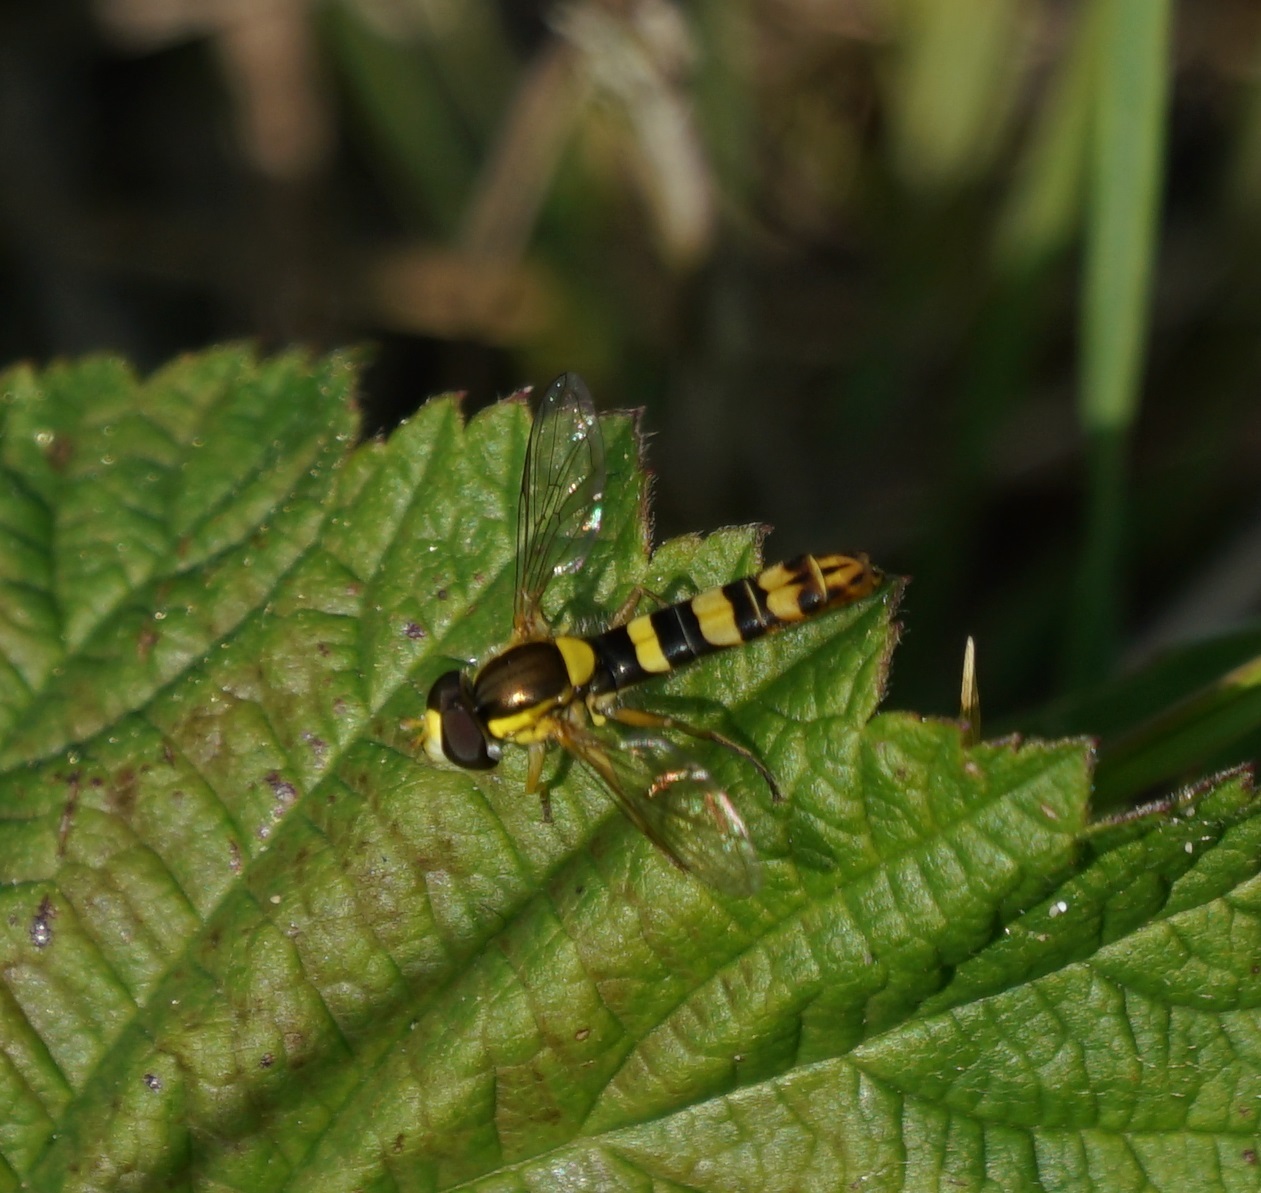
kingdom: Animalia
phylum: Arthropoda
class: Insecta
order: Diptera
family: Syrphidae
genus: Sphaerophoria
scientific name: Sphaerophoria scripta
